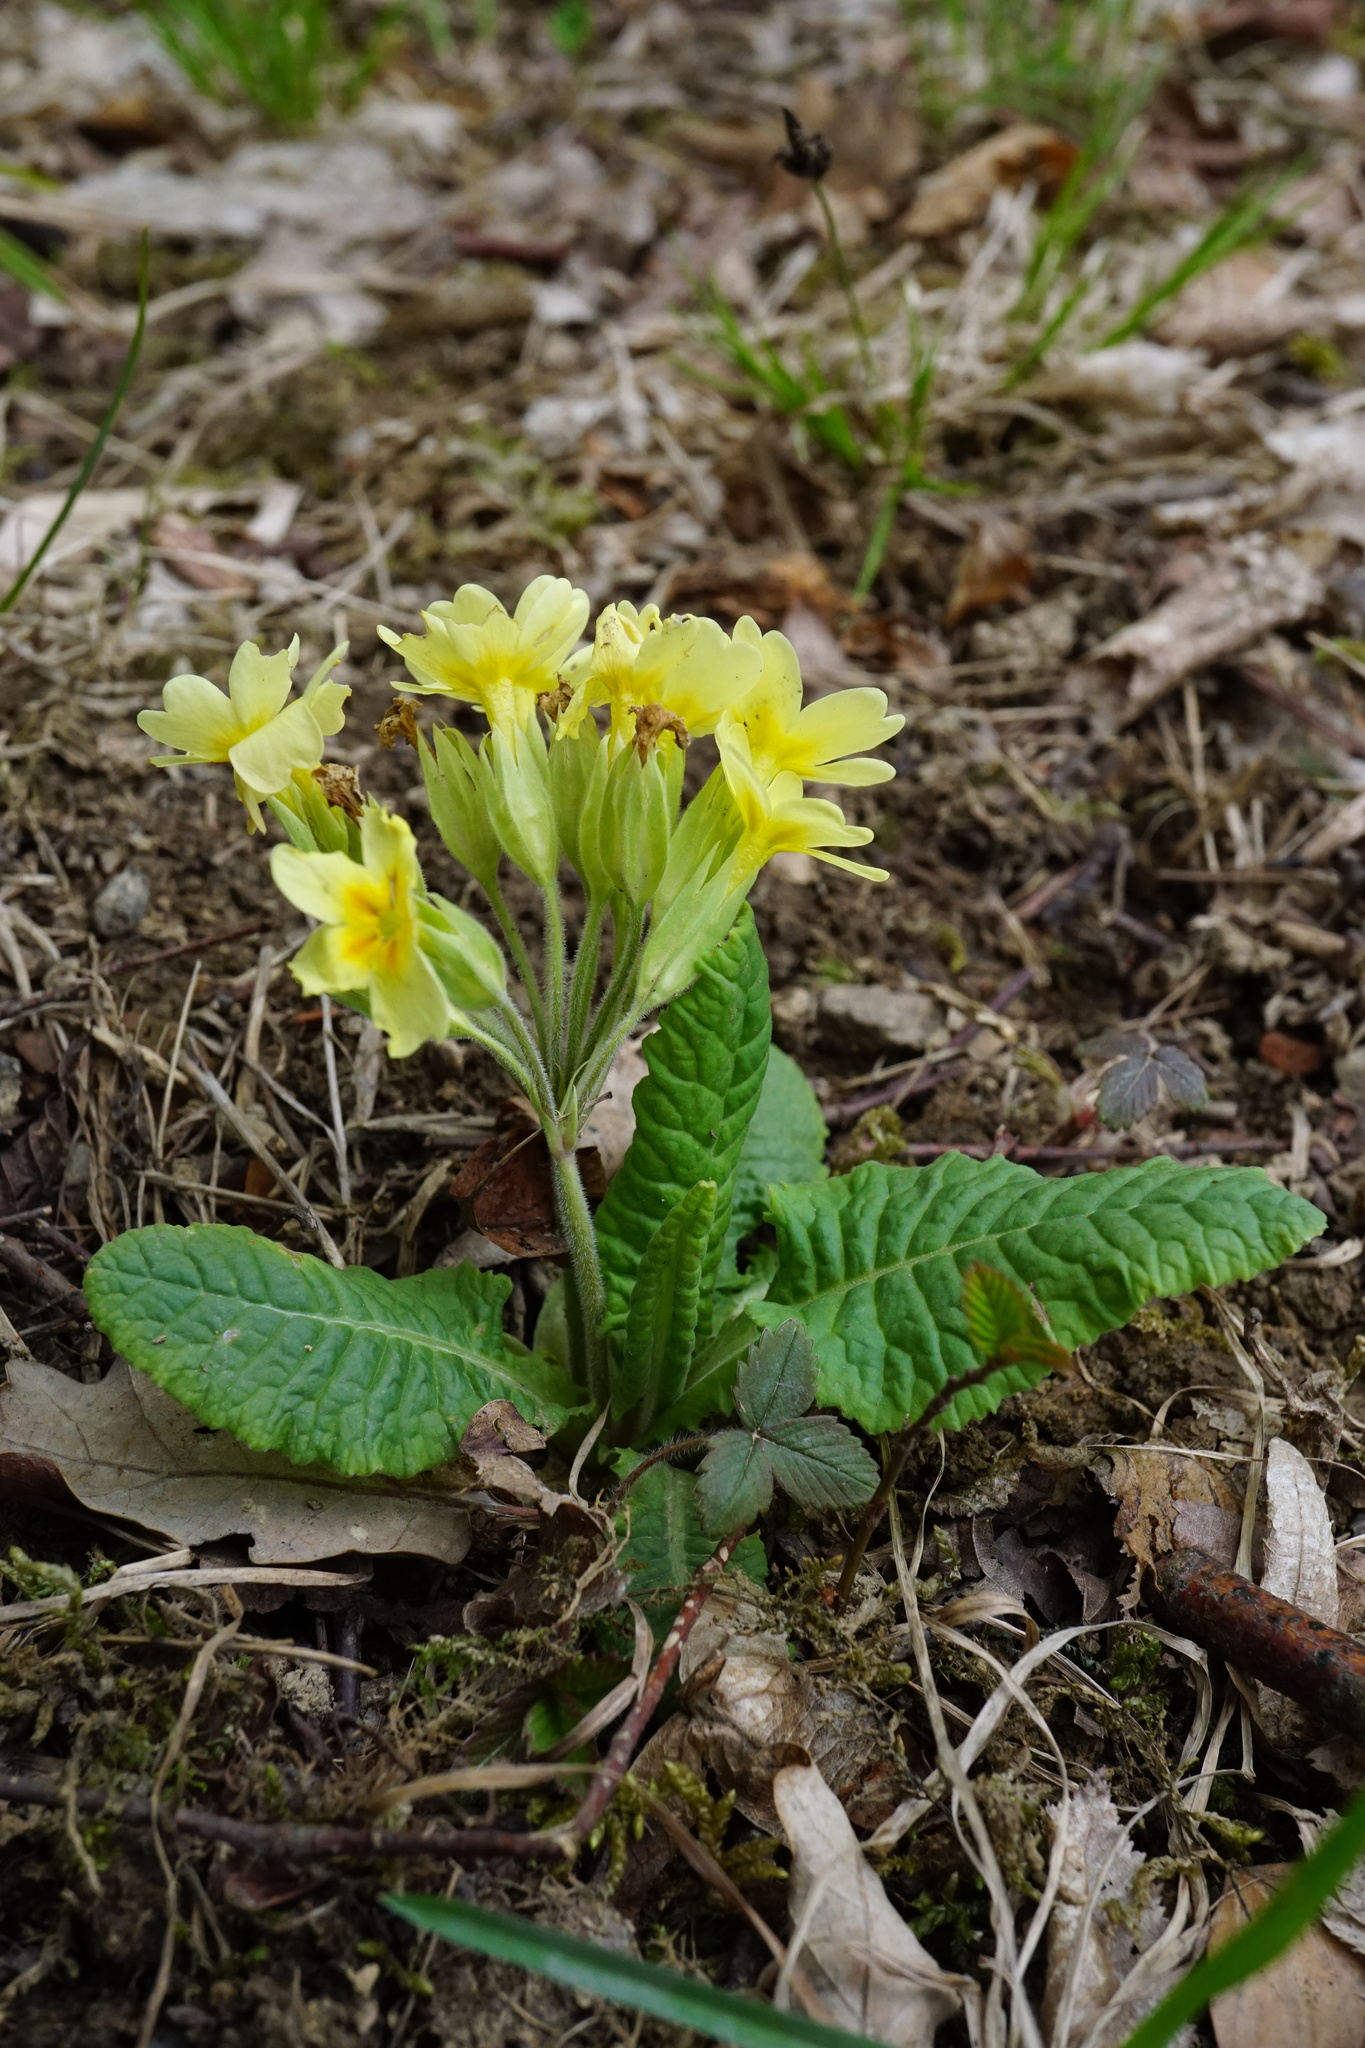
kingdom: Plantae
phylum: Tracheophyta
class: Magnoliopsida
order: Ericales
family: Primulaceae
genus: Primula
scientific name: Primula polyantha
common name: False oxlip
